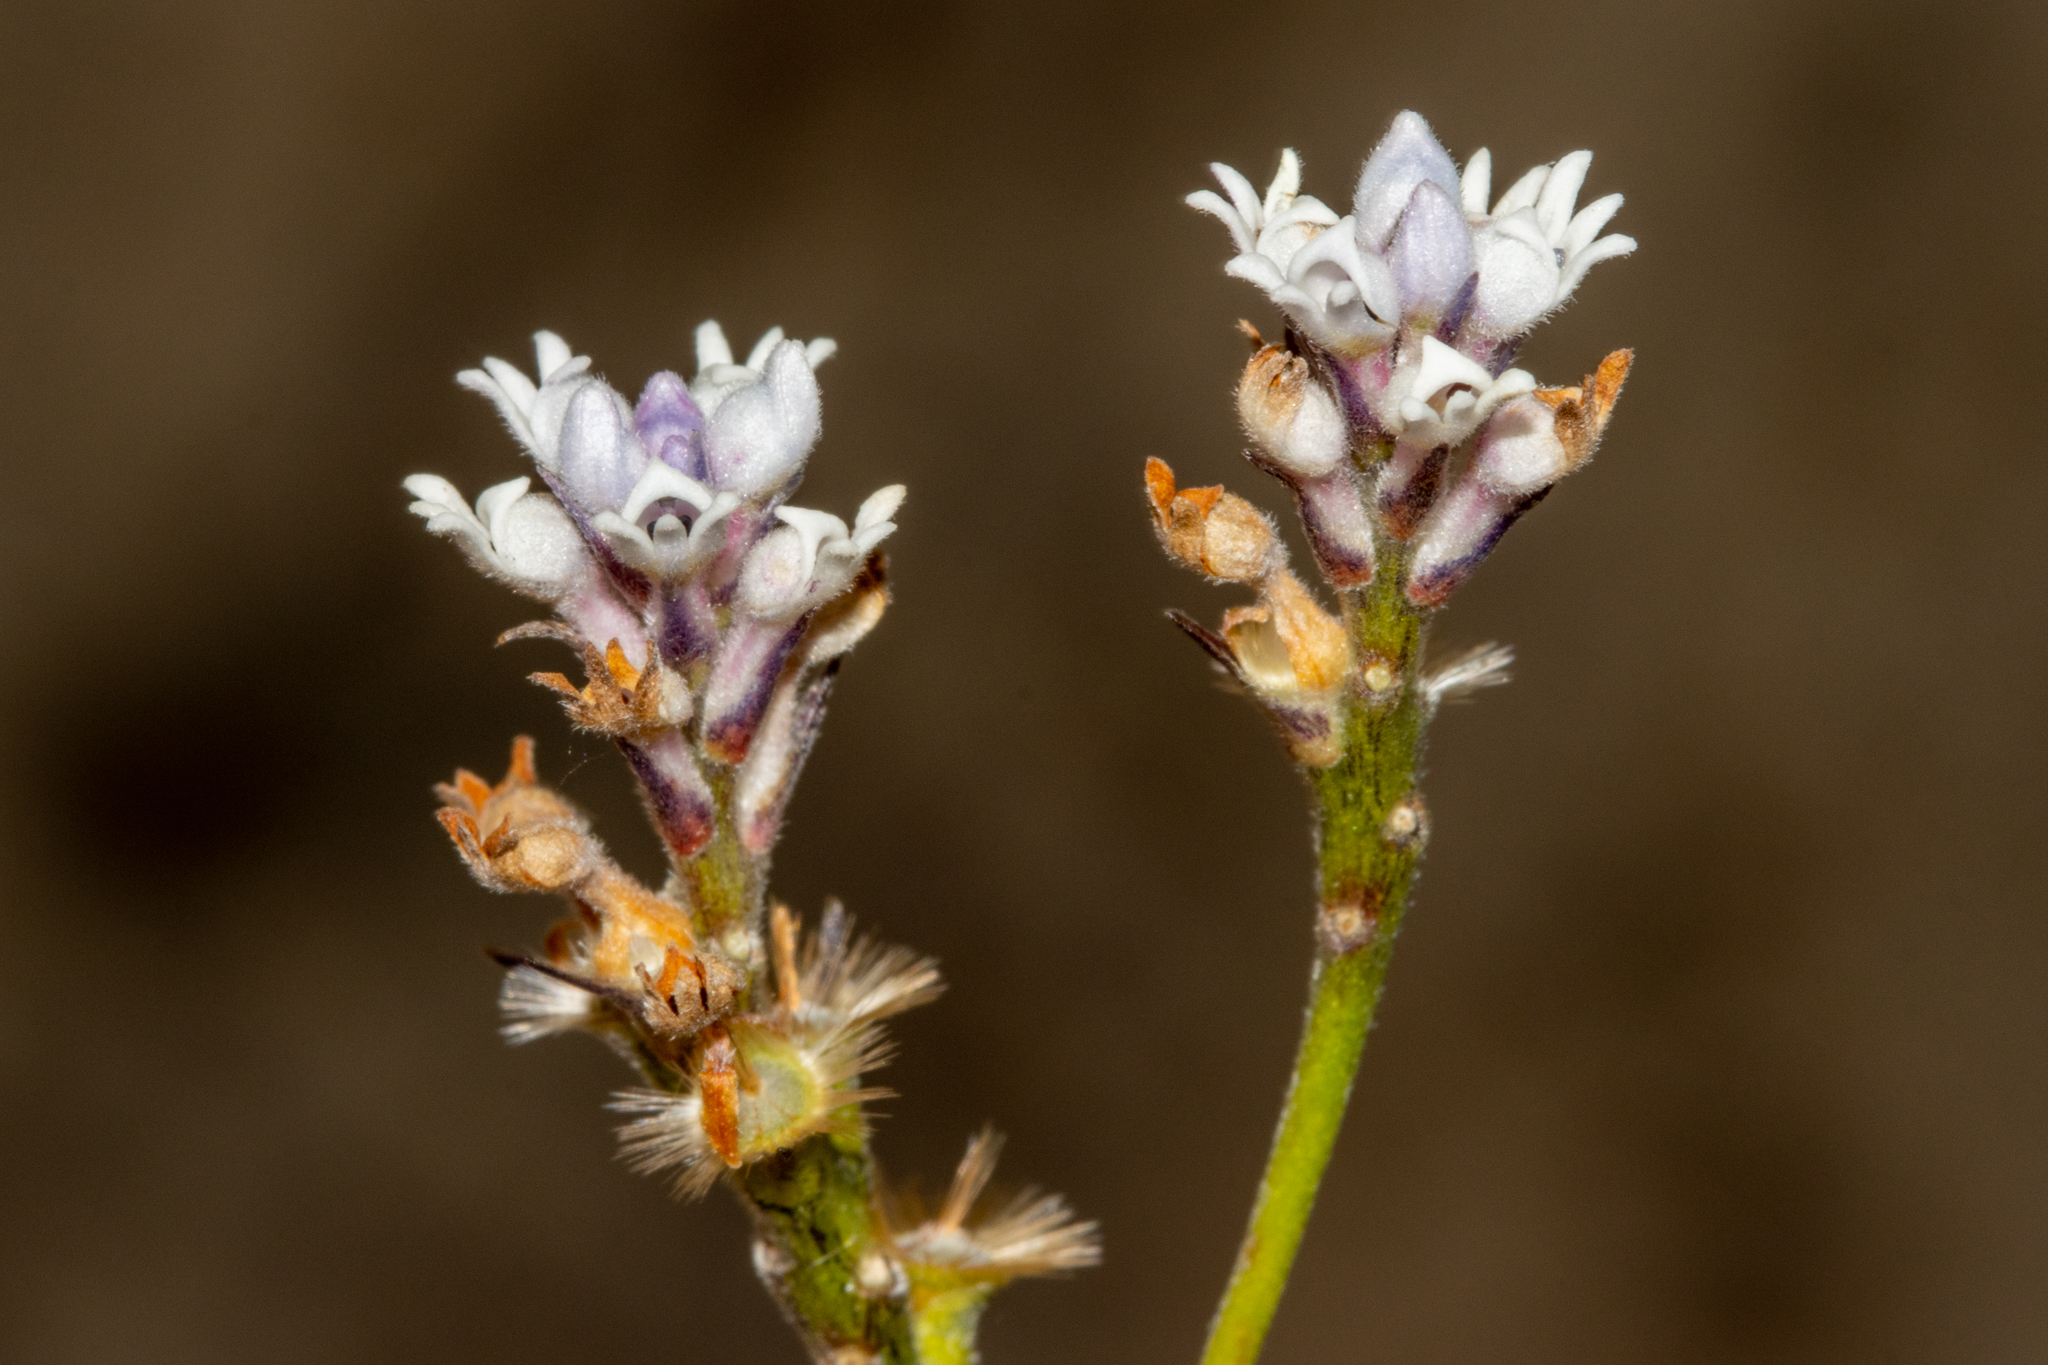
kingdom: Plantae
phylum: Tracheophyta
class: Magnoliopsida
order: Proteales
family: Proteaceae
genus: Conospermum
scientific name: Conospermum patens
